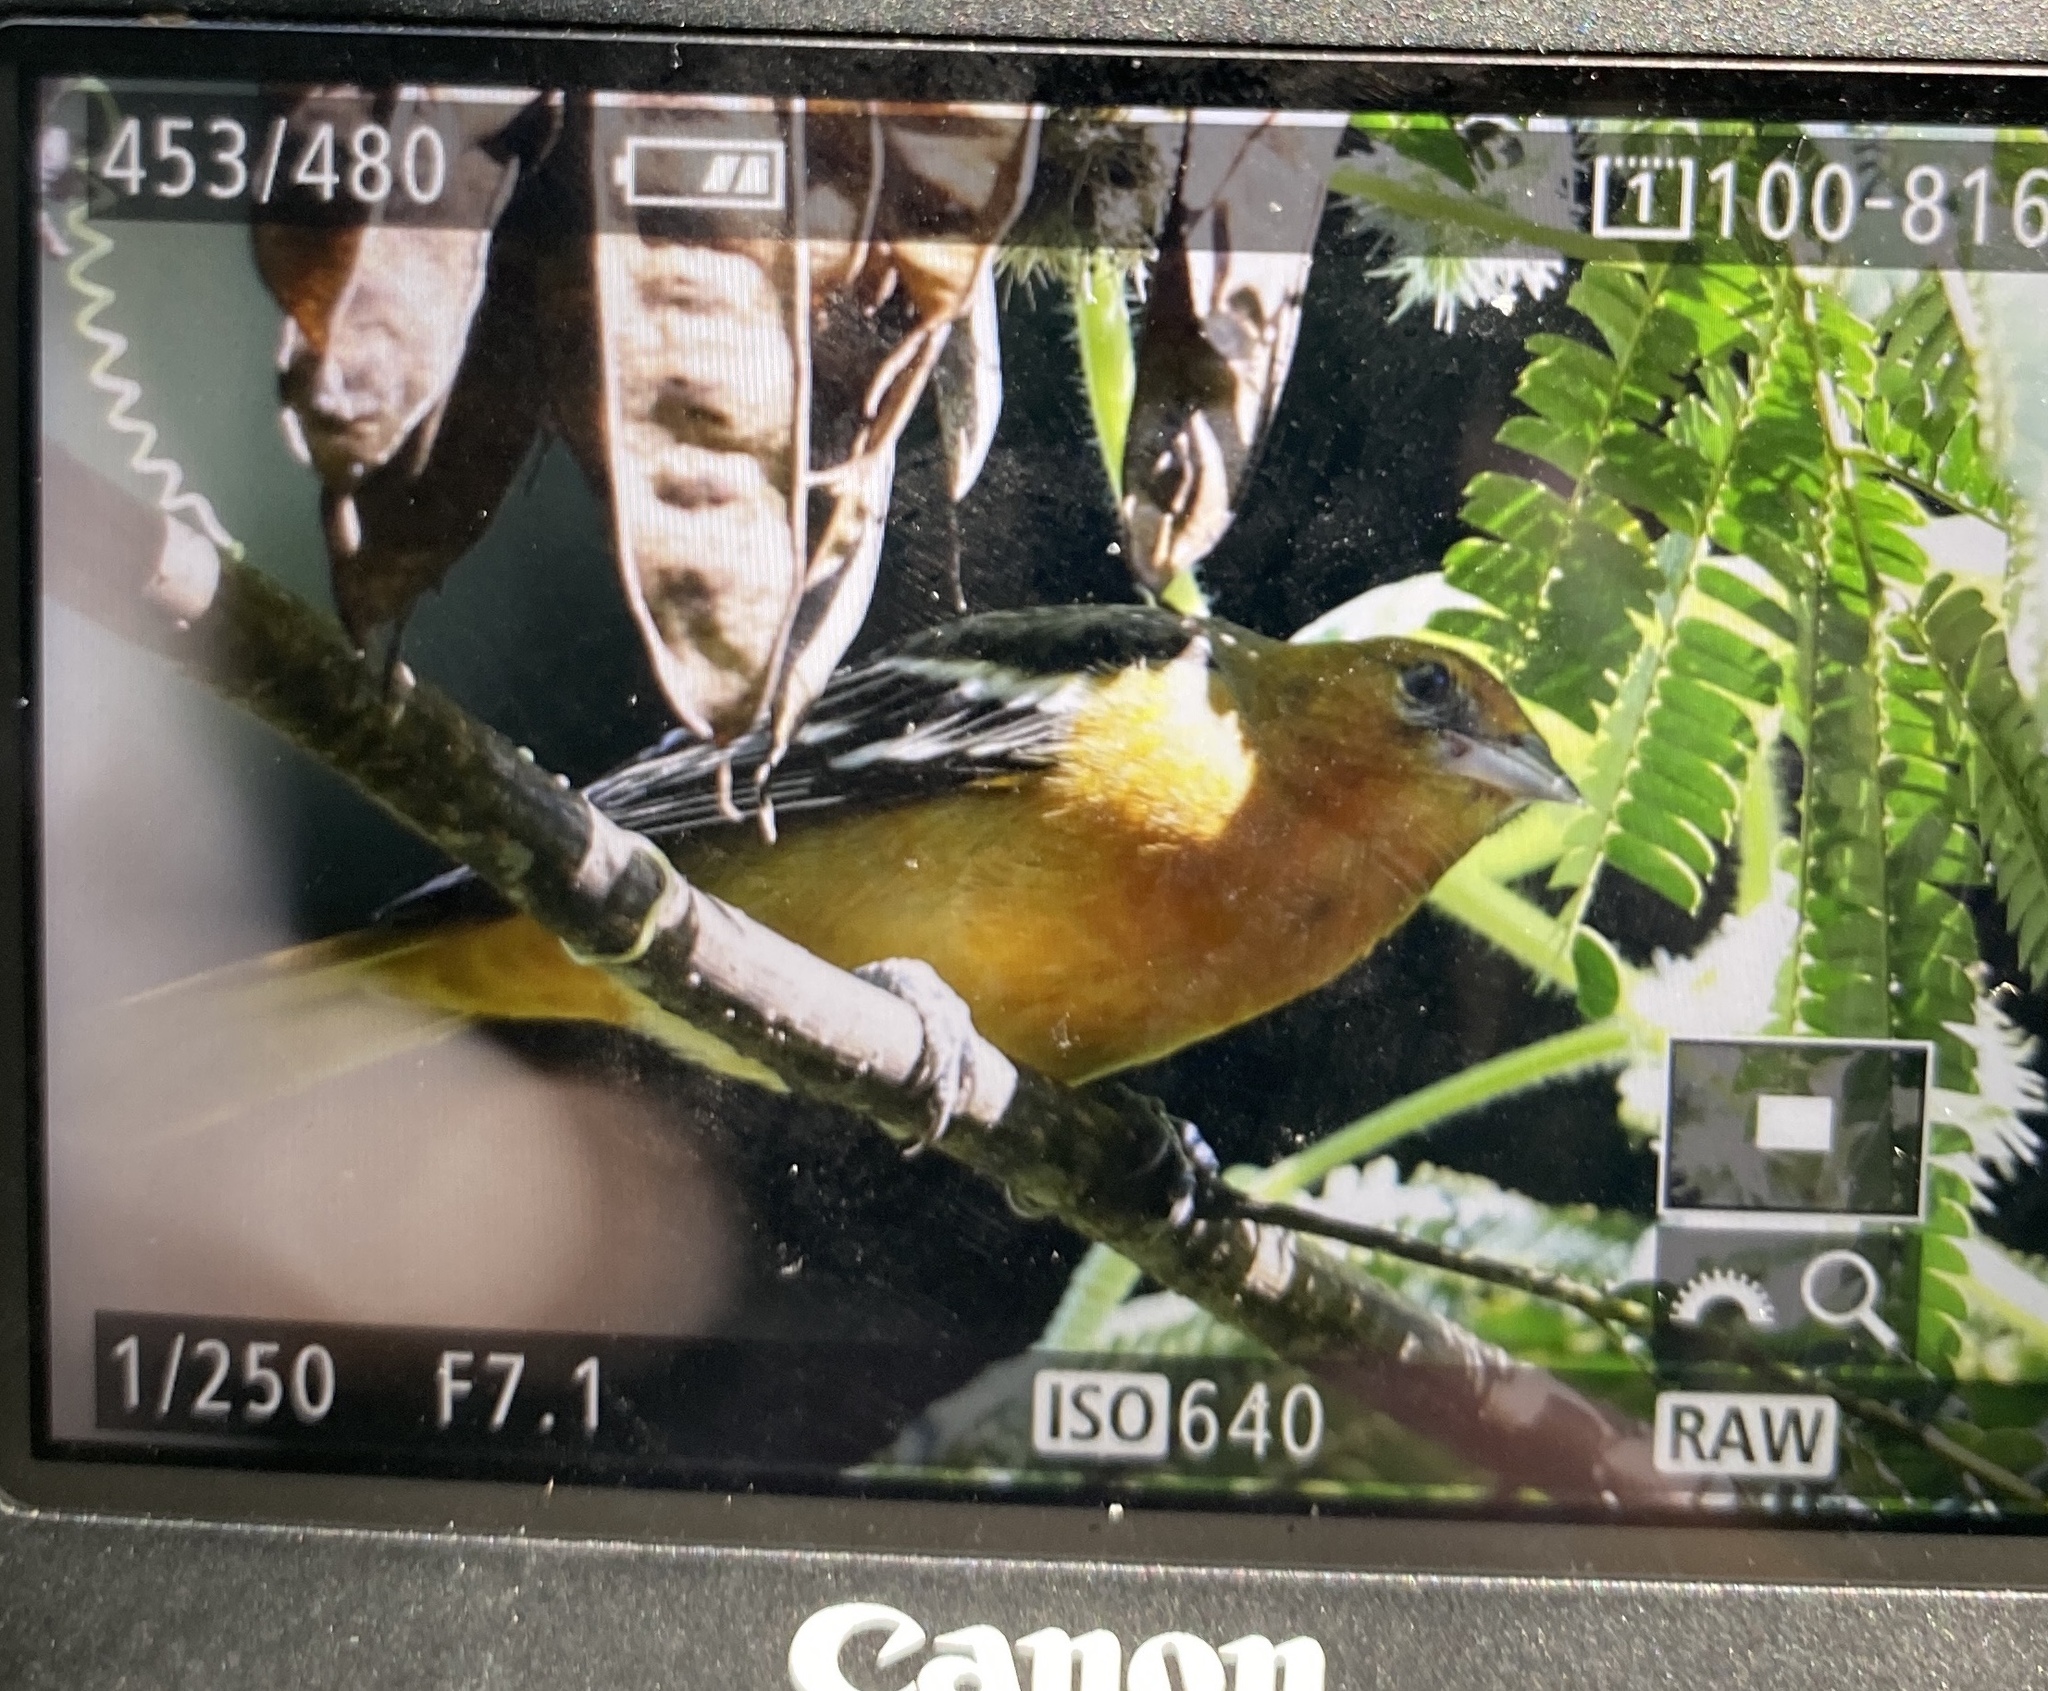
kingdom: Animalia
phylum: Chordata
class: Aves
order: Passeriformes
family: Icteridae
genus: Icterus
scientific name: Icterus galbula
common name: Baltimore oriole
